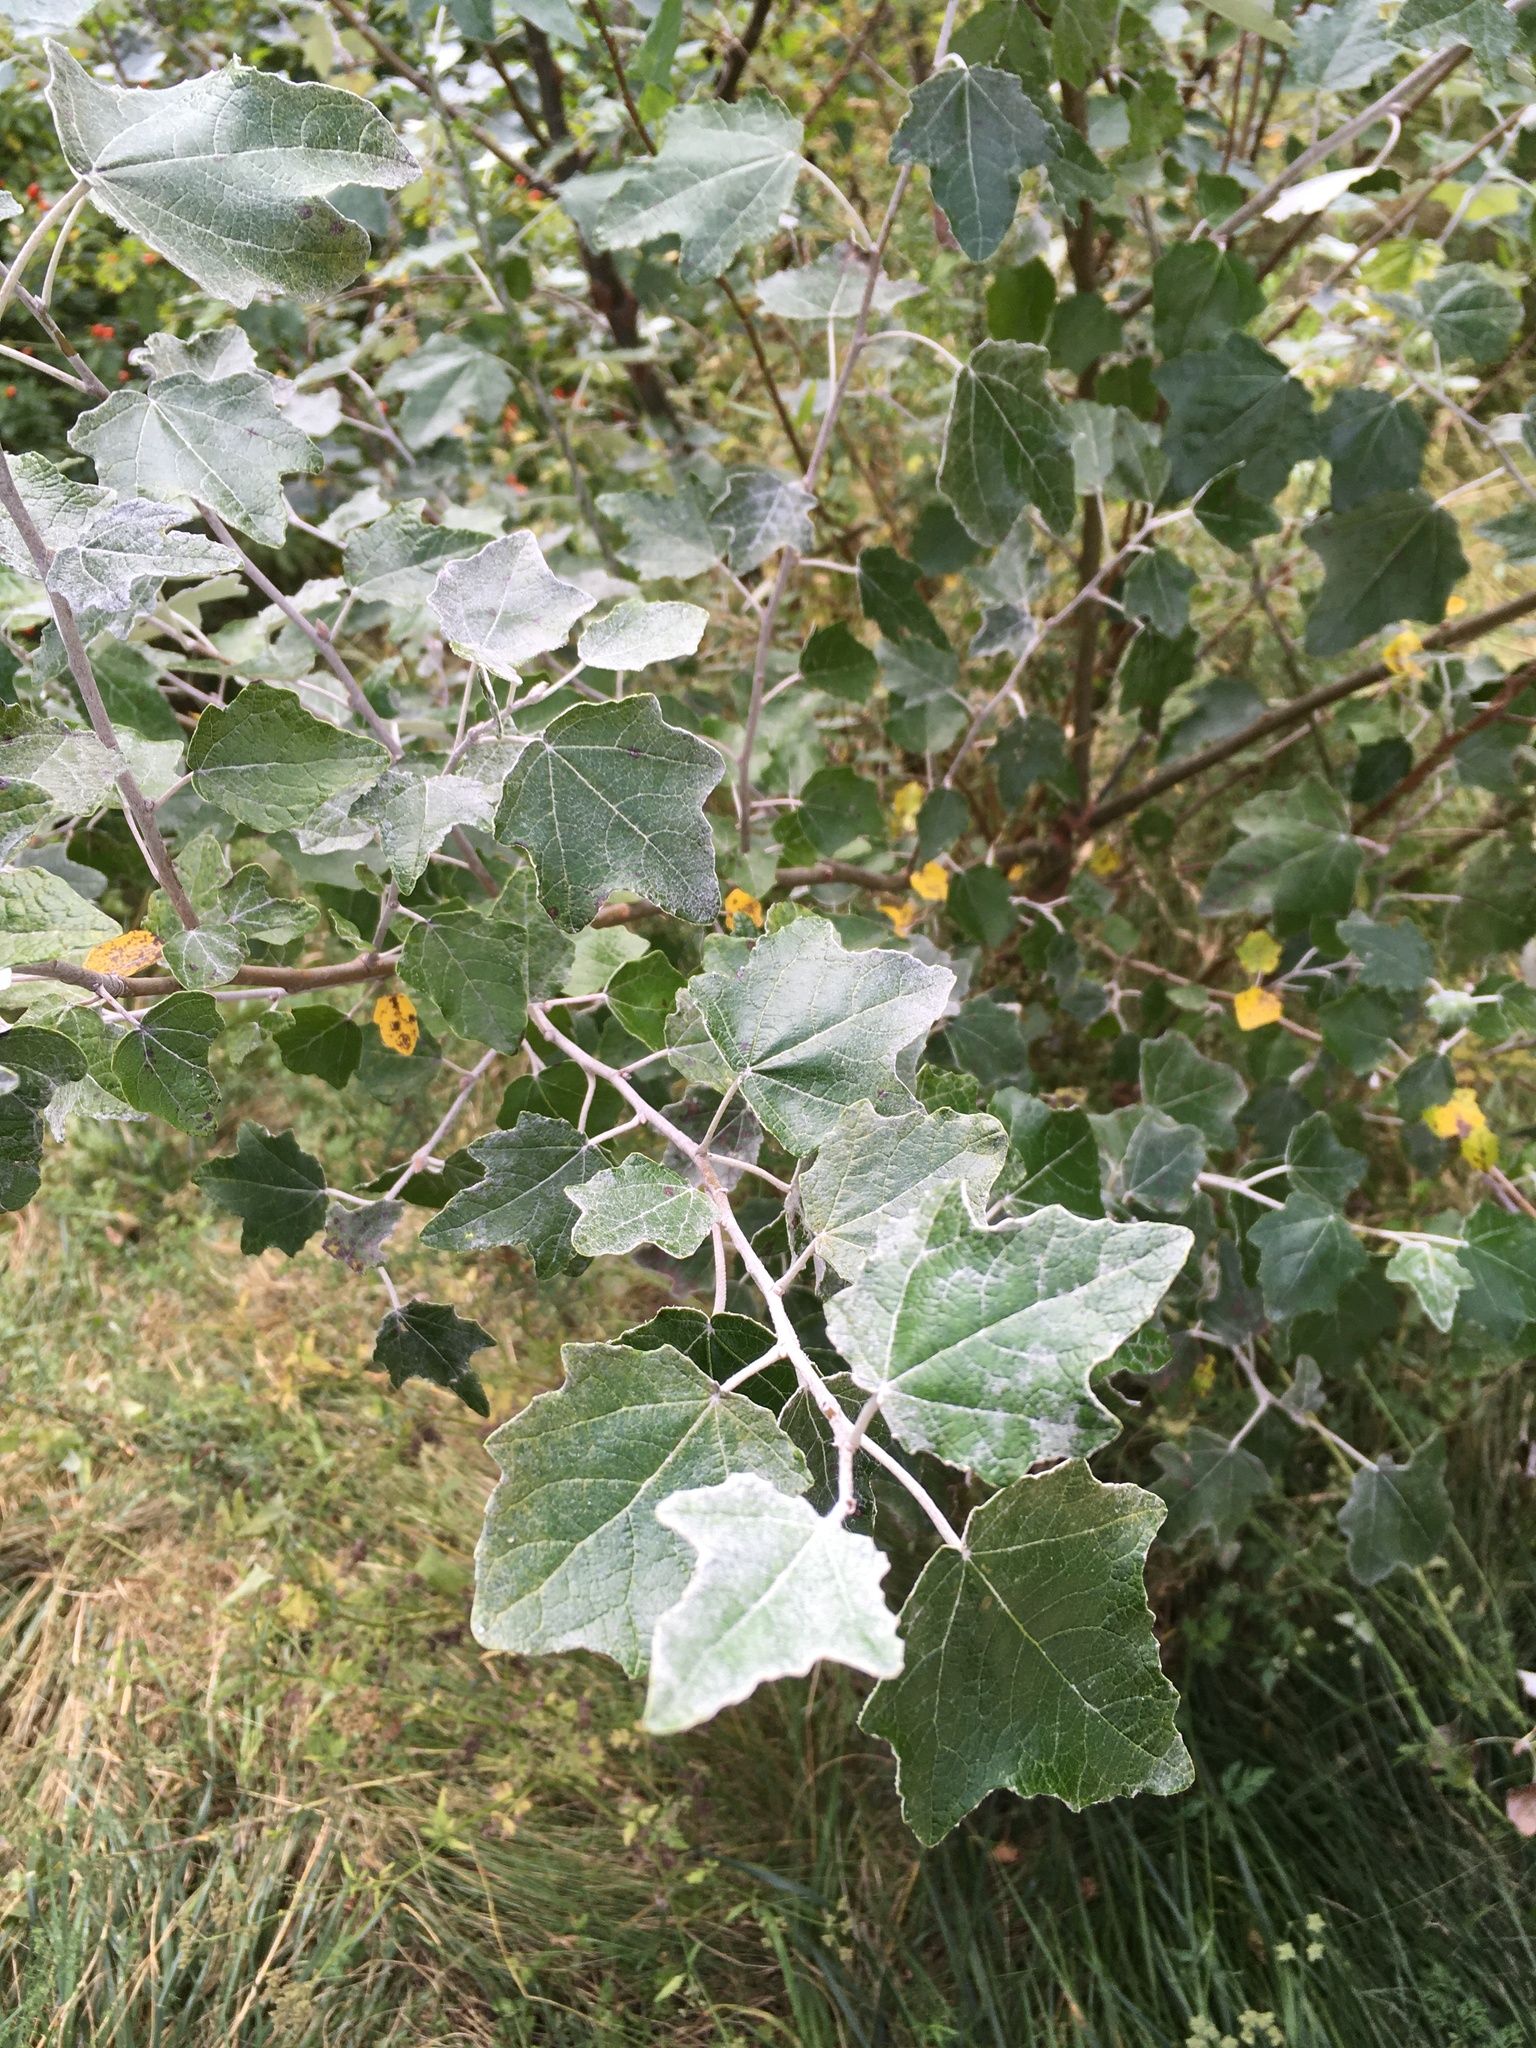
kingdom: Plantae
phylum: Tracheophyta
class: Magnoliopsida
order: Malpighiales
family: Salicaceae
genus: Populus
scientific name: Populus alba
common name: White poplar
